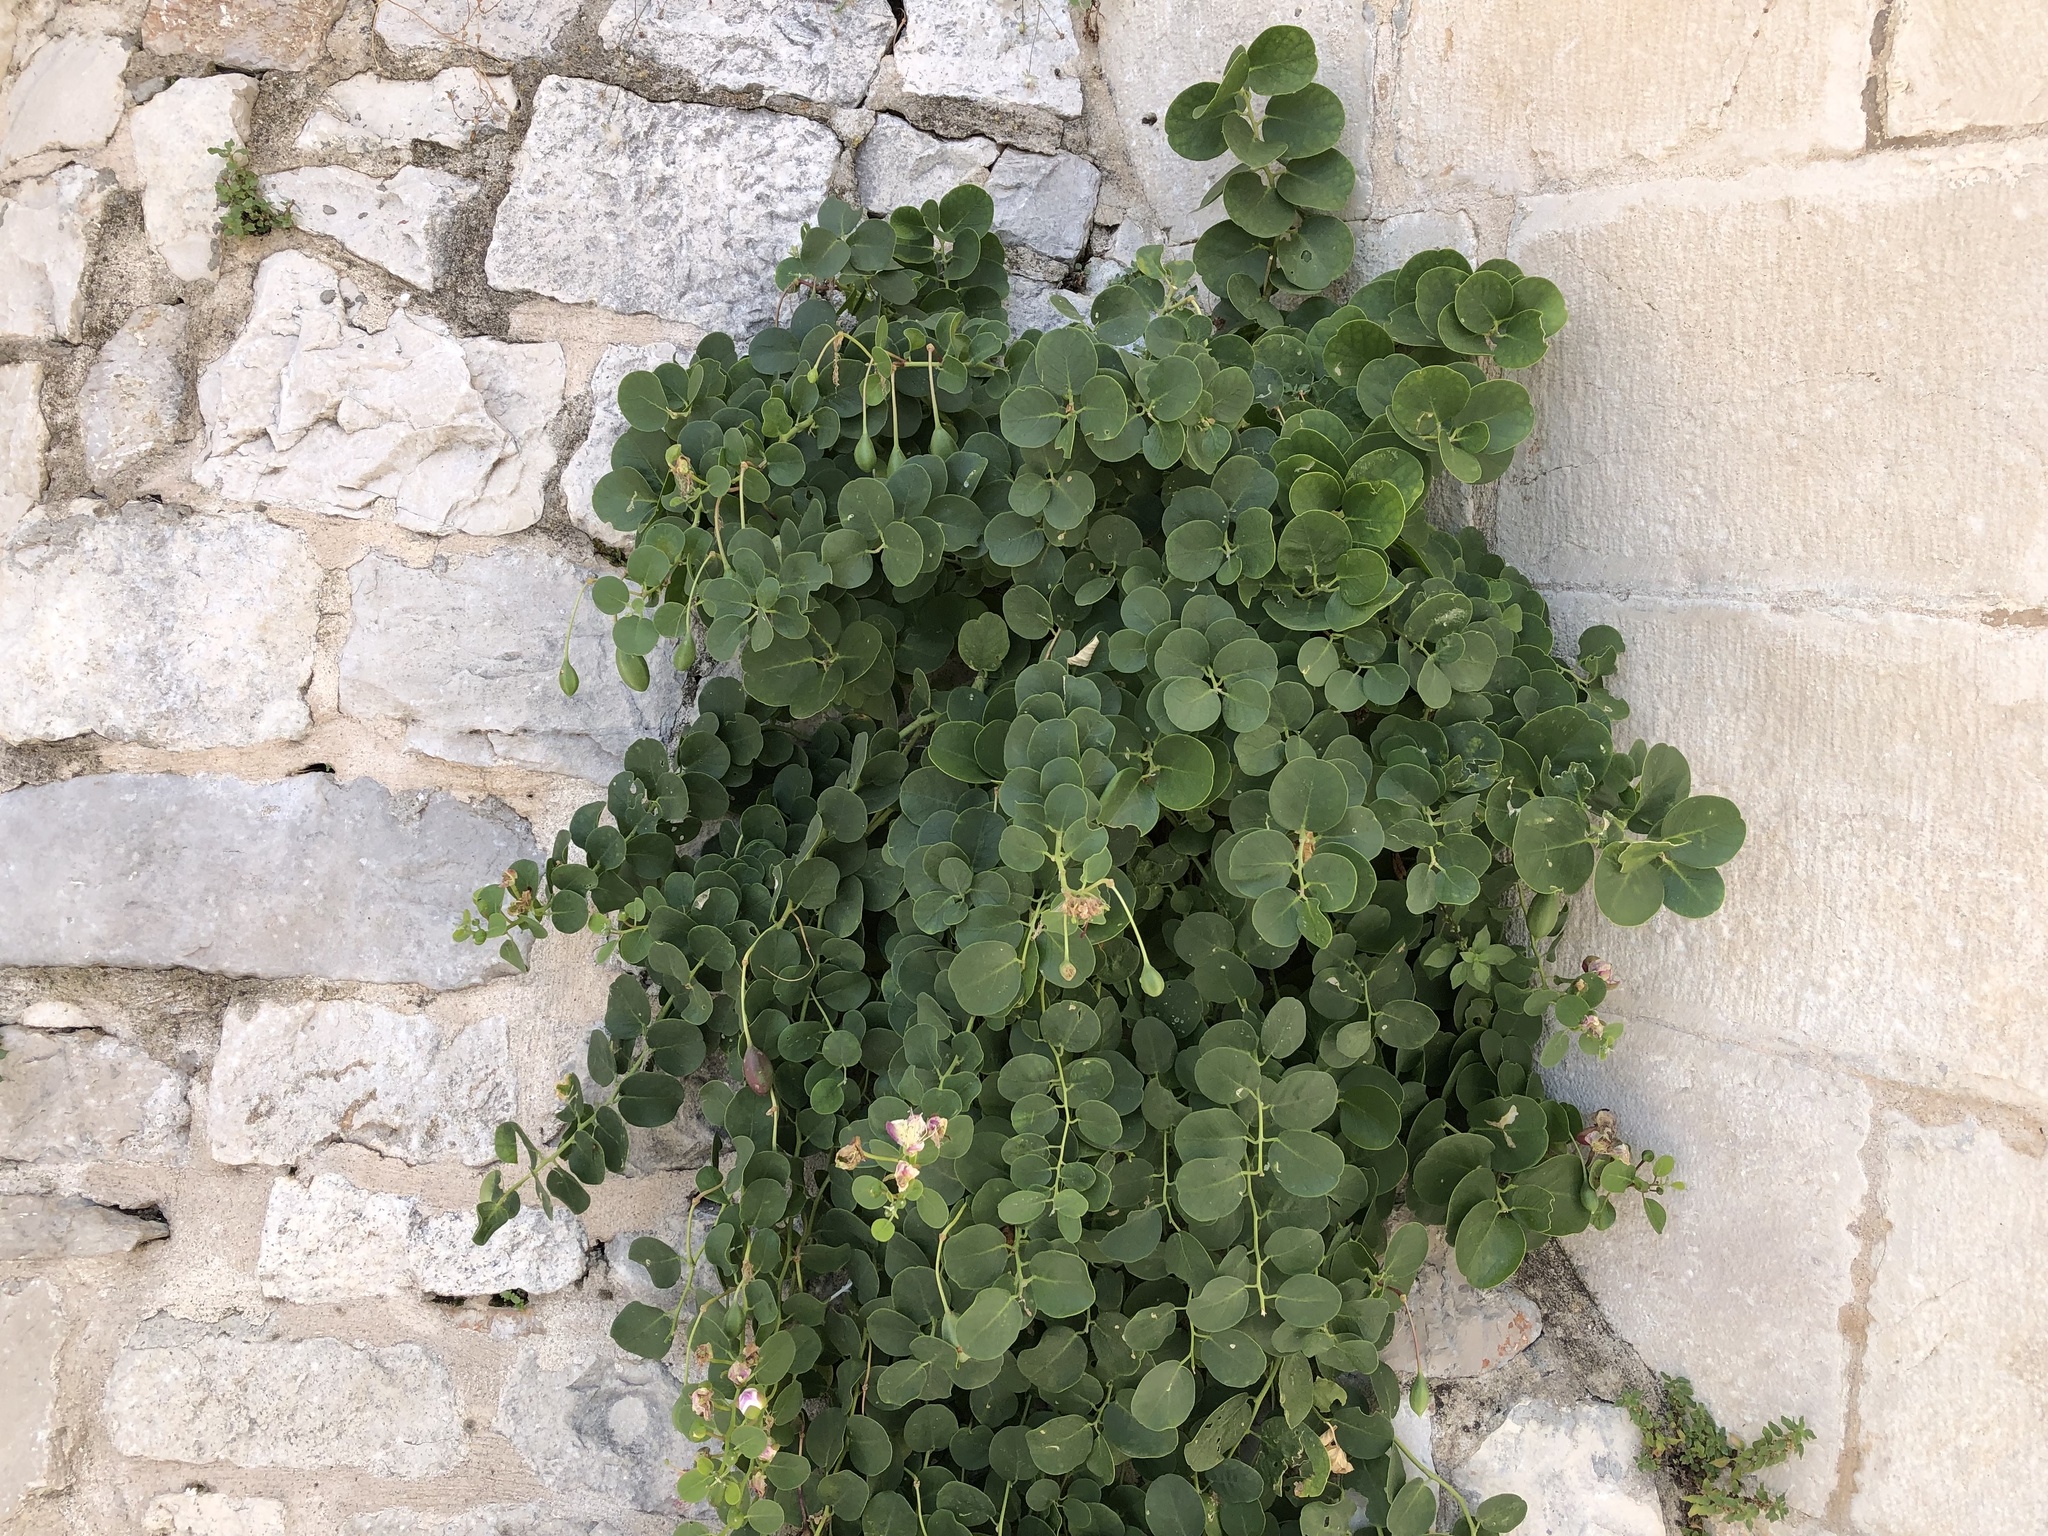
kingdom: Plantae
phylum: Tracheophyta
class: Magnoliopsida
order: Brassicales
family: Capparaceae
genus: Capparis
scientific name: Capparis orientalis
